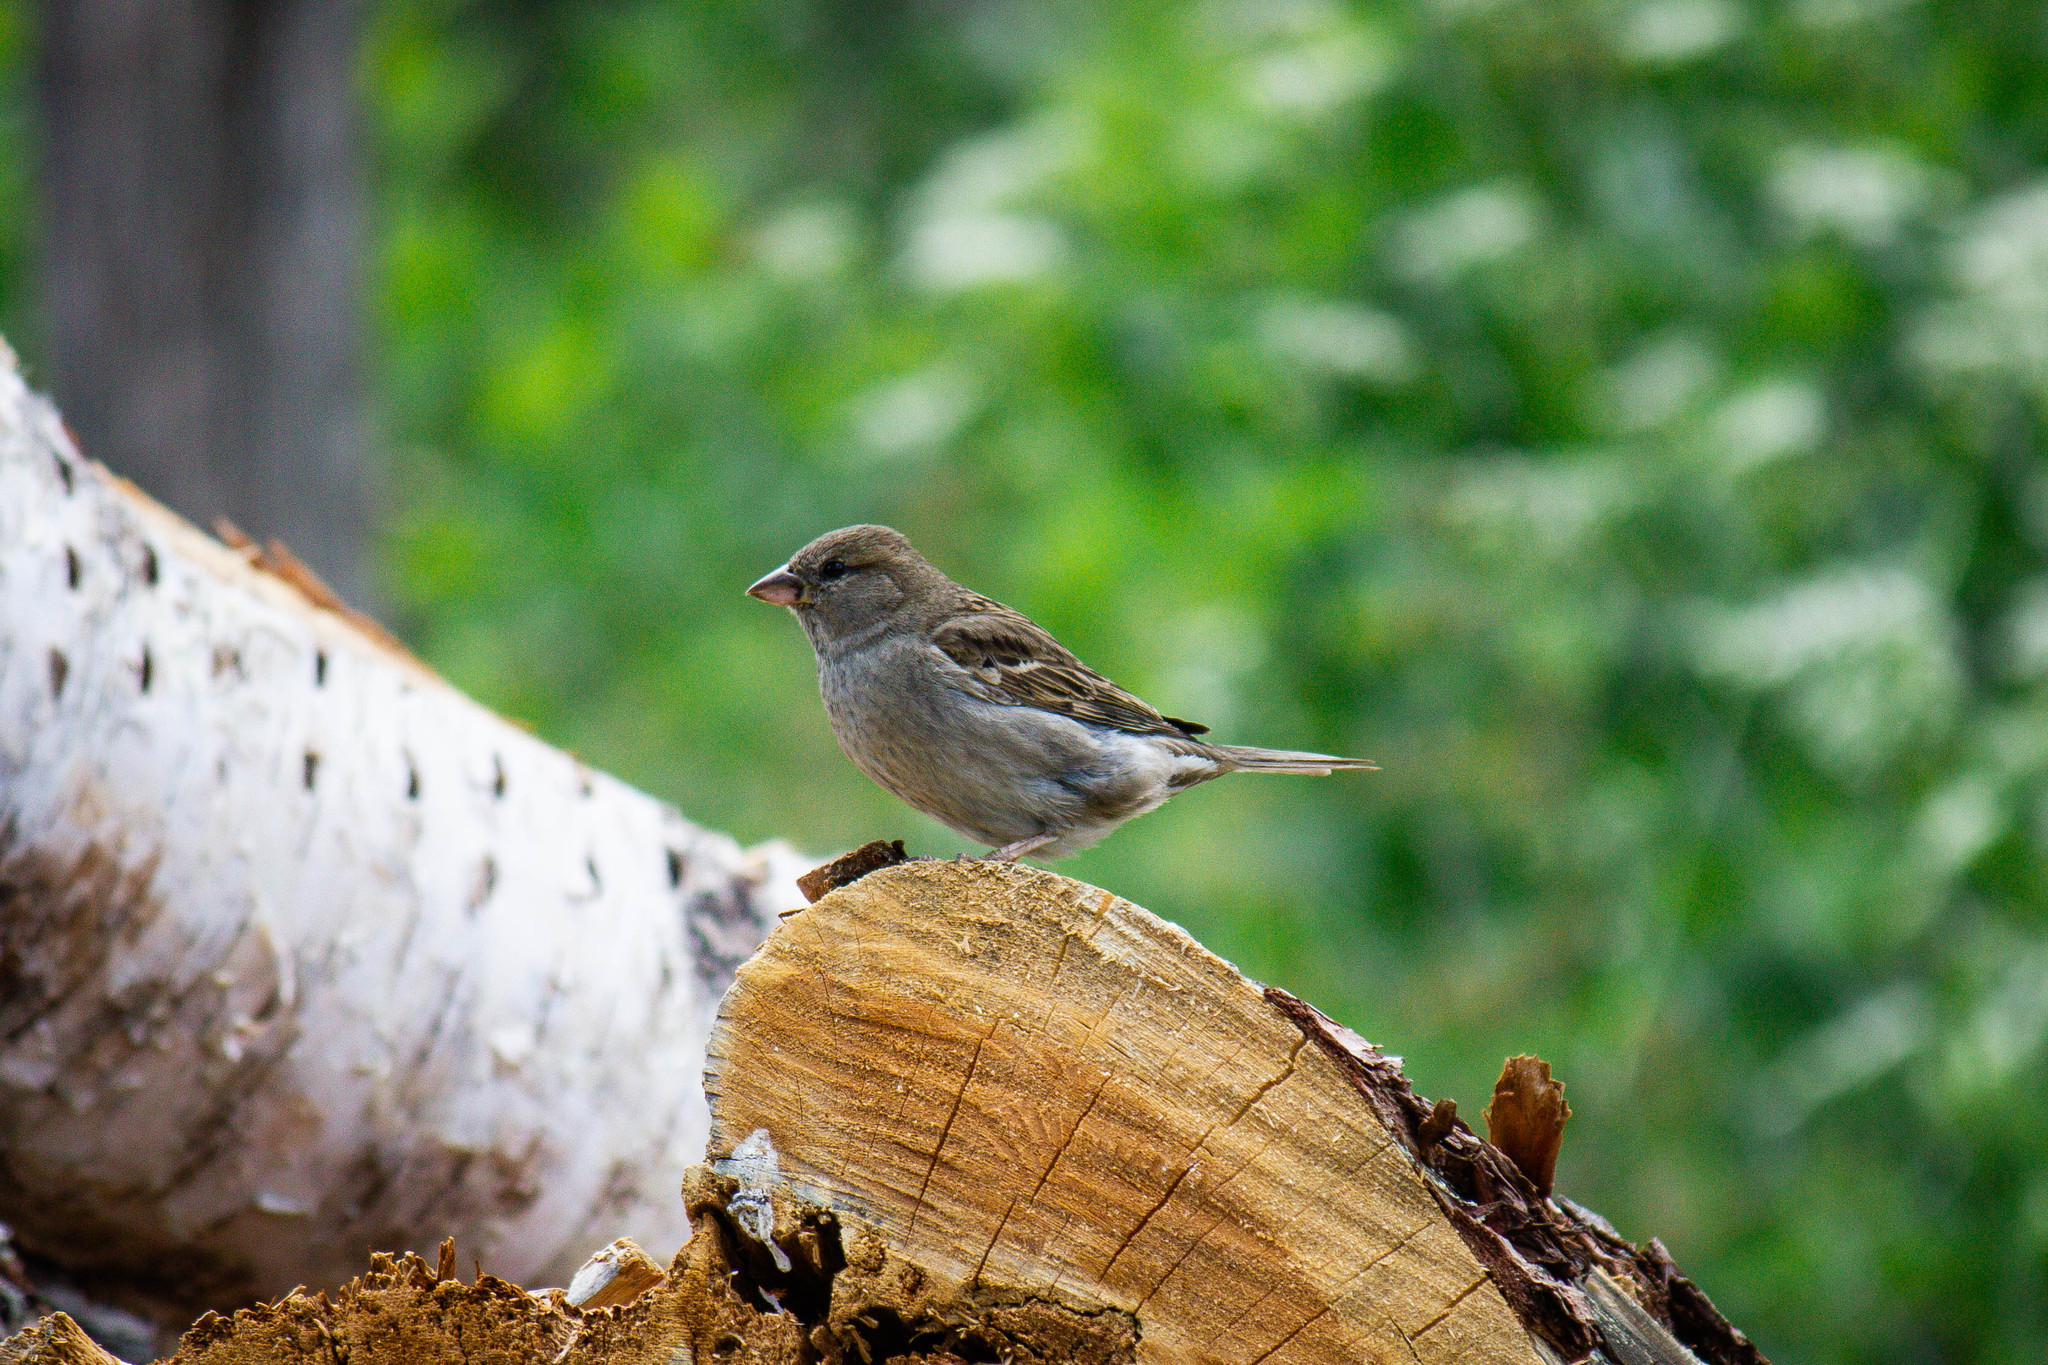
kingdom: Animalia
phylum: Chordata
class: Aves
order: Passeriformes
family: Passeridae
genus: Passer
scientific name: Passer domesticus
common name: House sparrow
